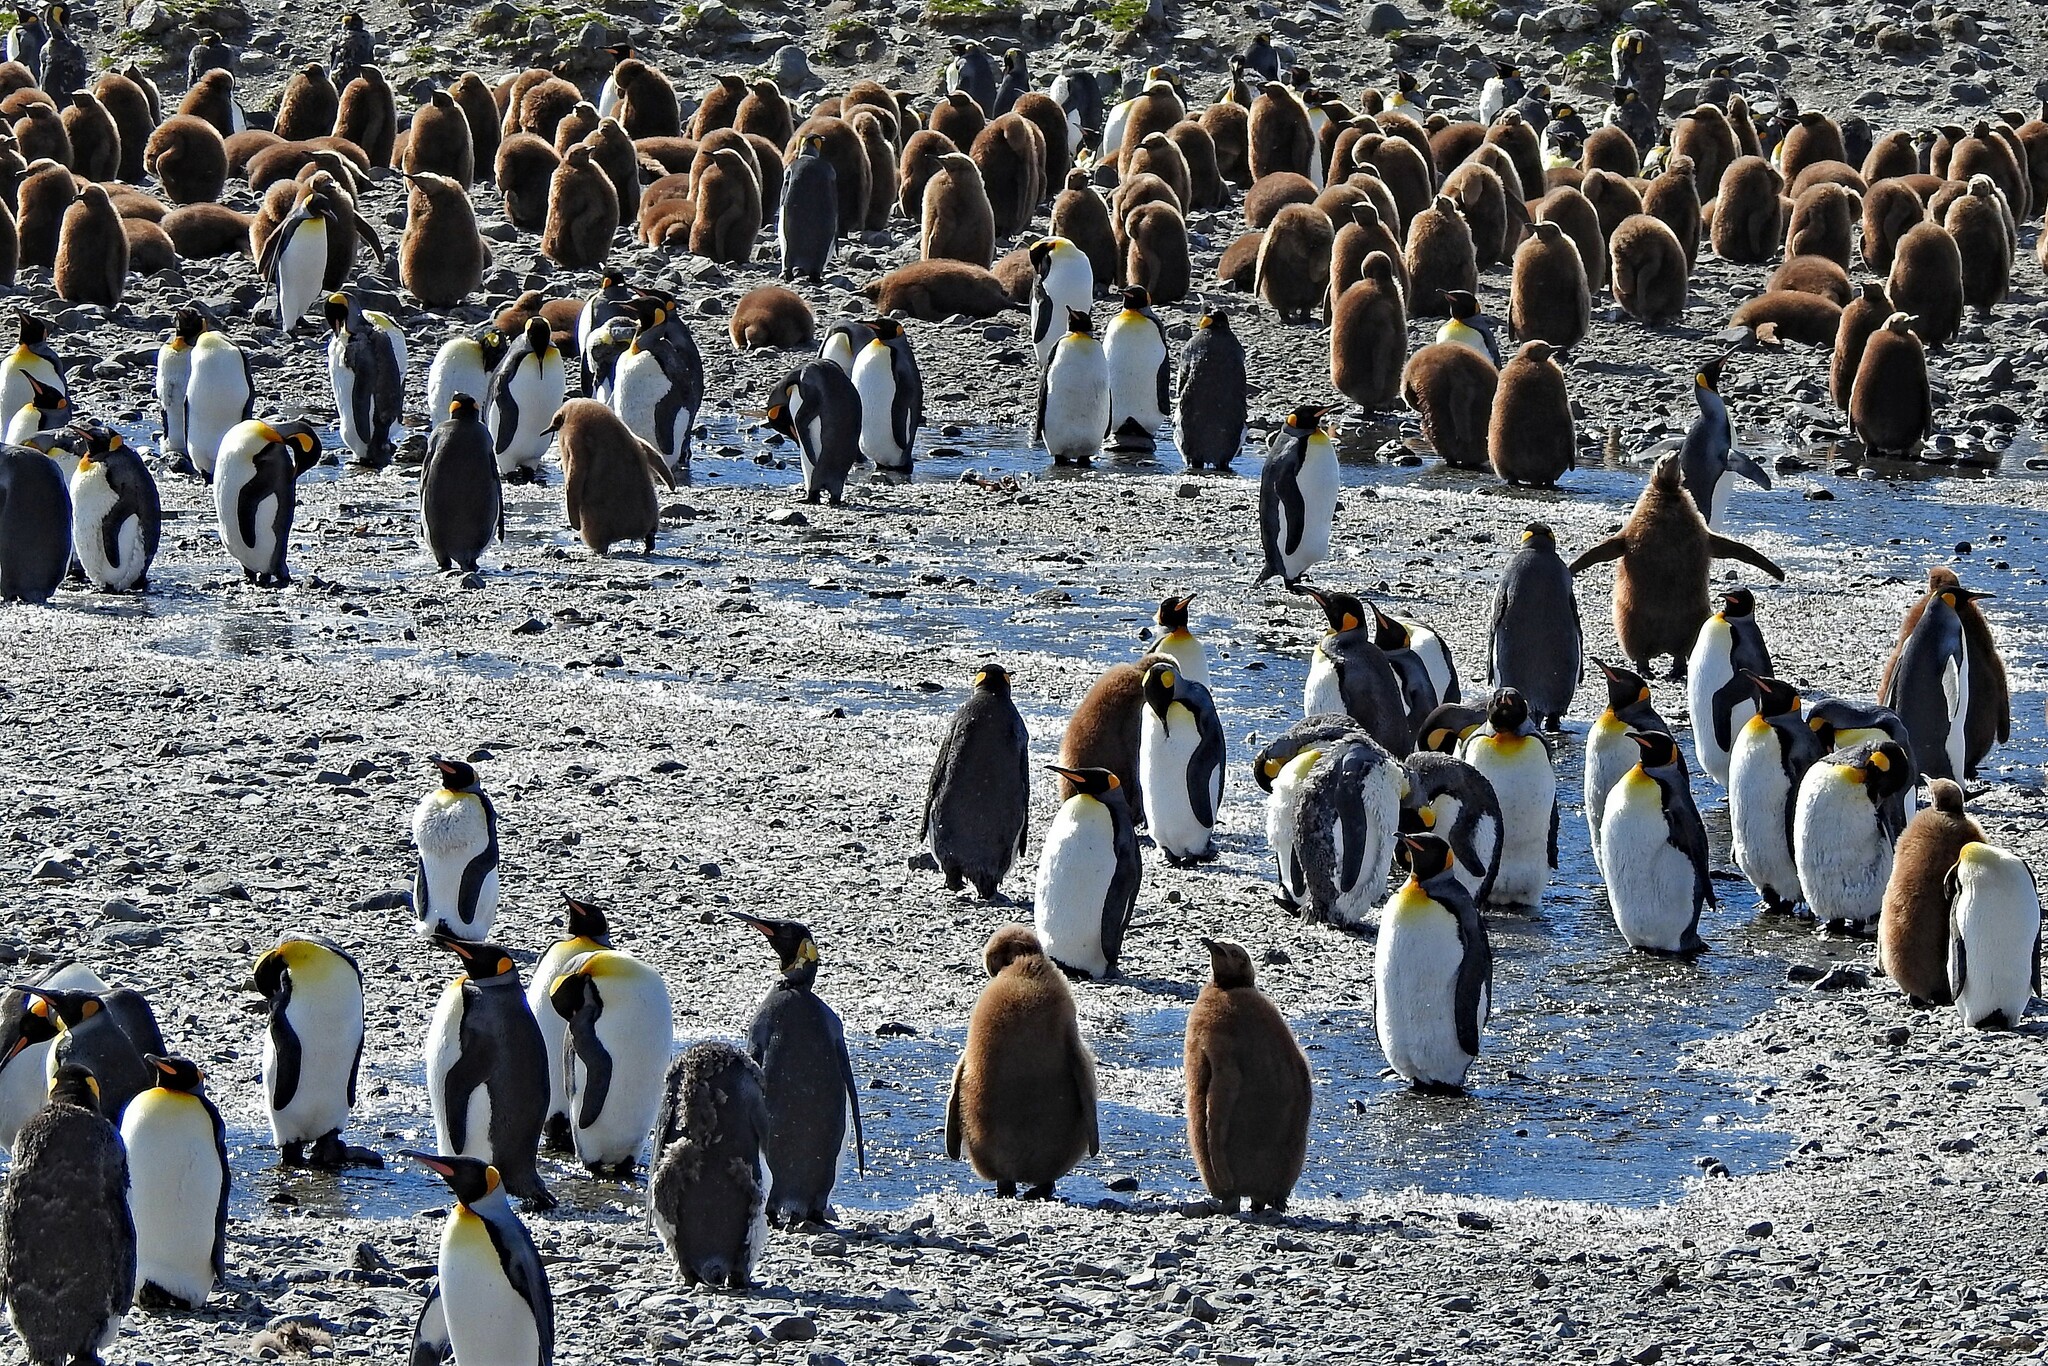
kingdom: Animalia
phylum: Chordata
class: Aves
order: Sphenisciformes
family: Spheniscidae
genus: Aptenodytes
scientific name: Aptenodytes patagonicus
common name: King penguin
